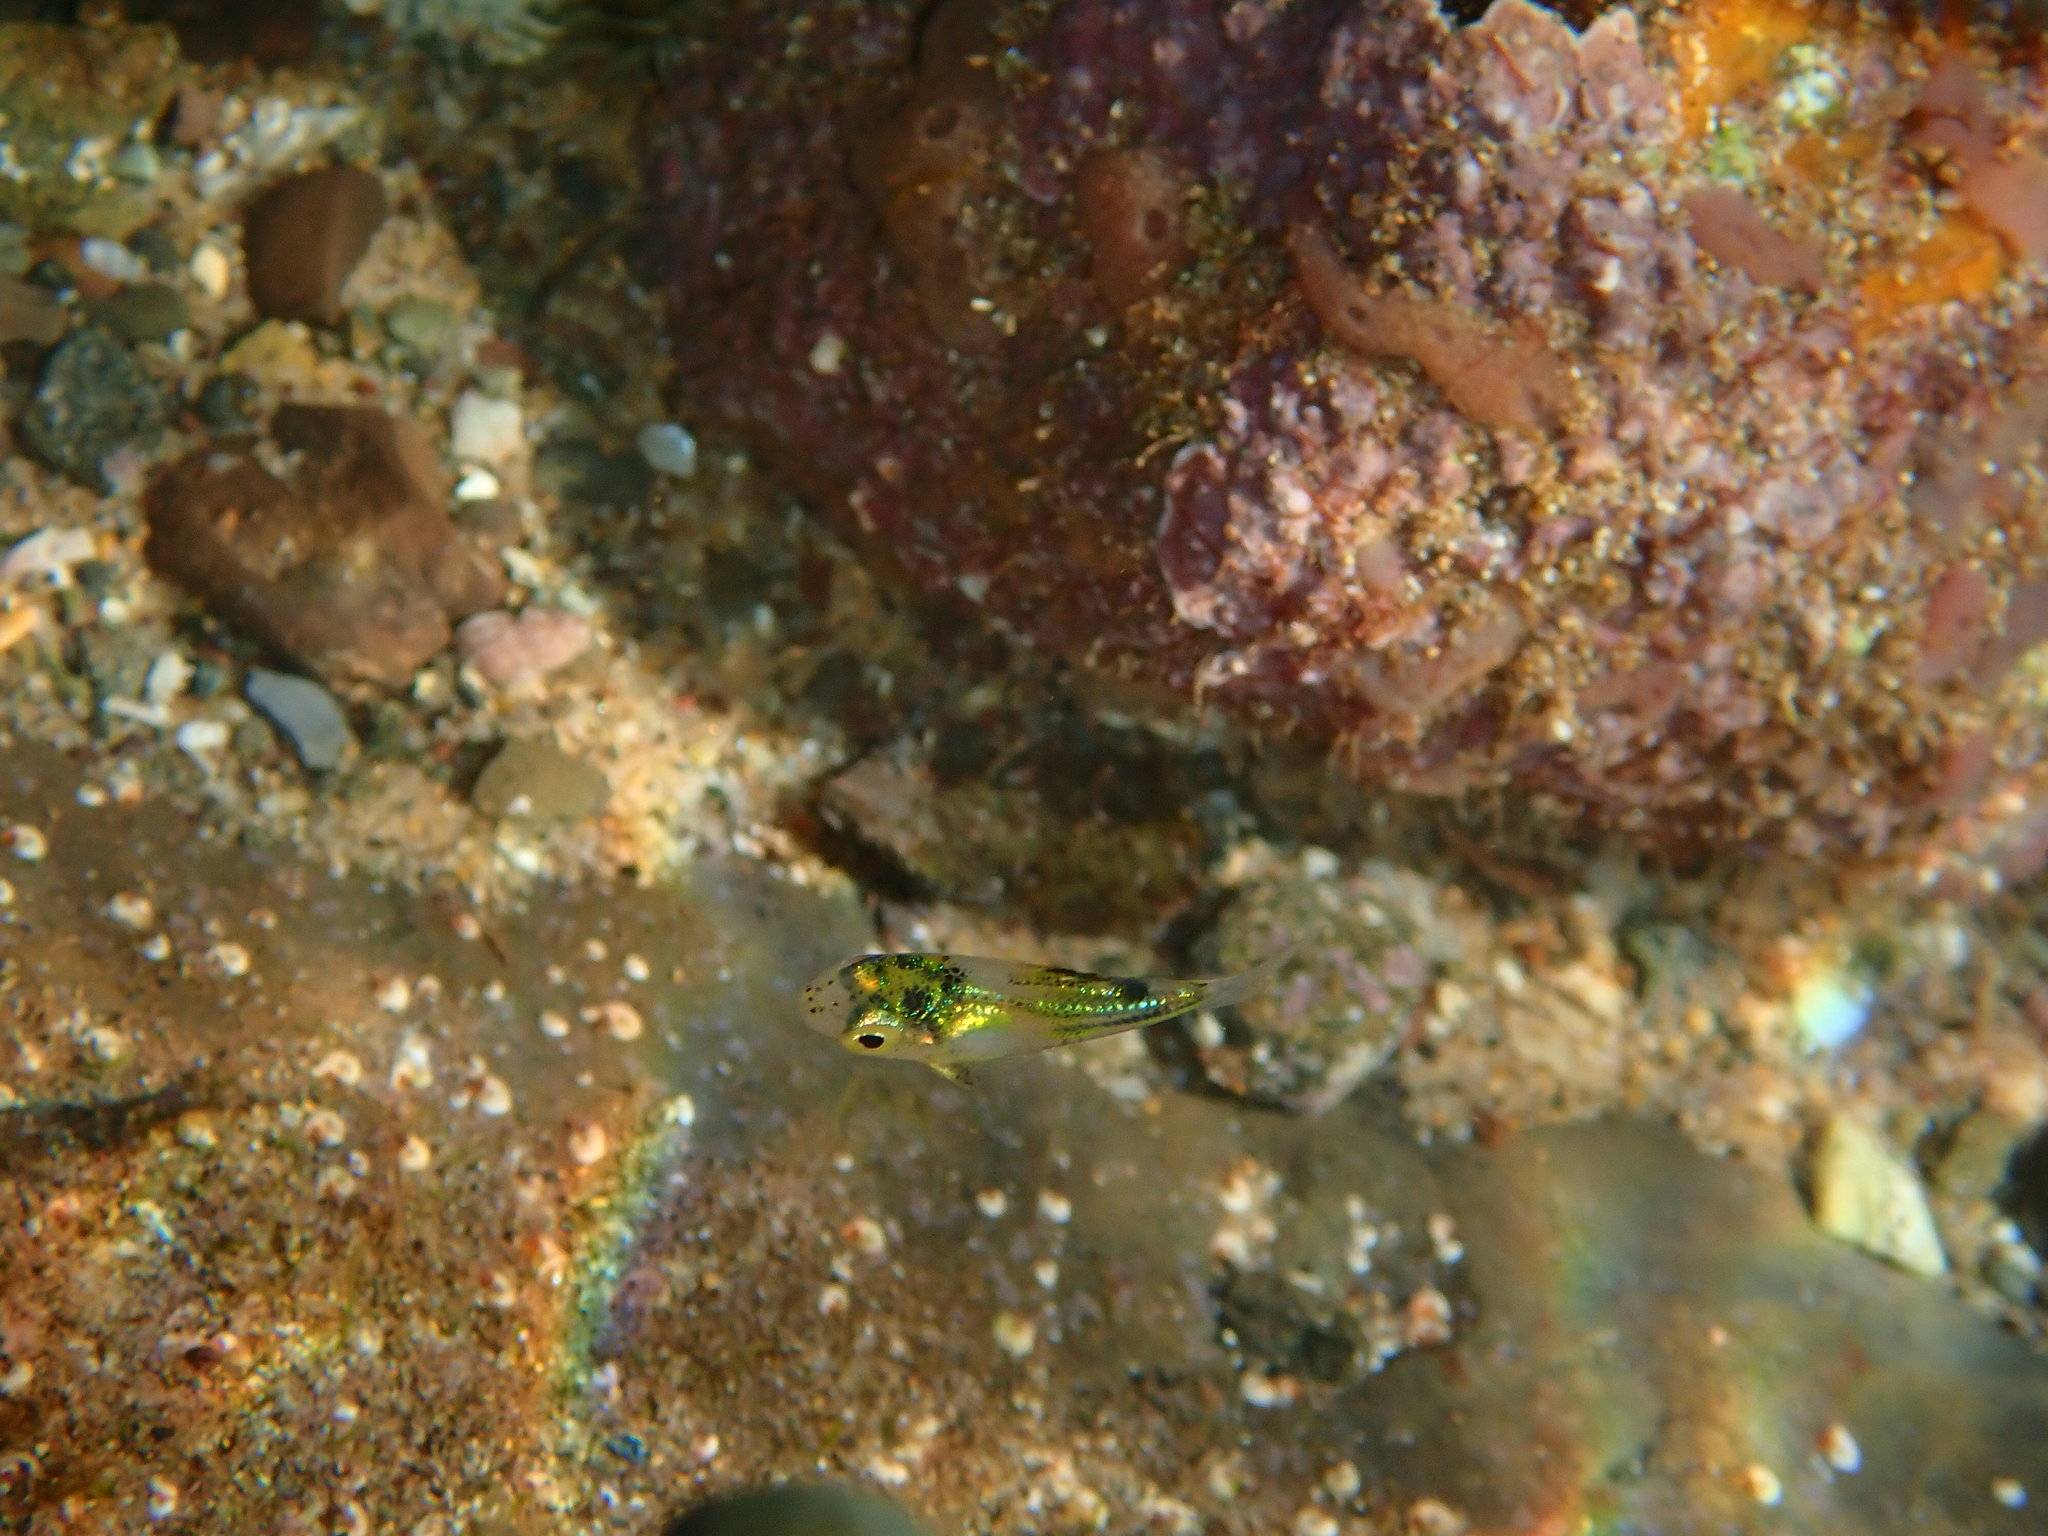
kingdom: Animalia
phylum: Chordata
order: Perciformes
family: Kyphosidae
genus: Microcanthus
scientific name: Microcanthus joyceae
